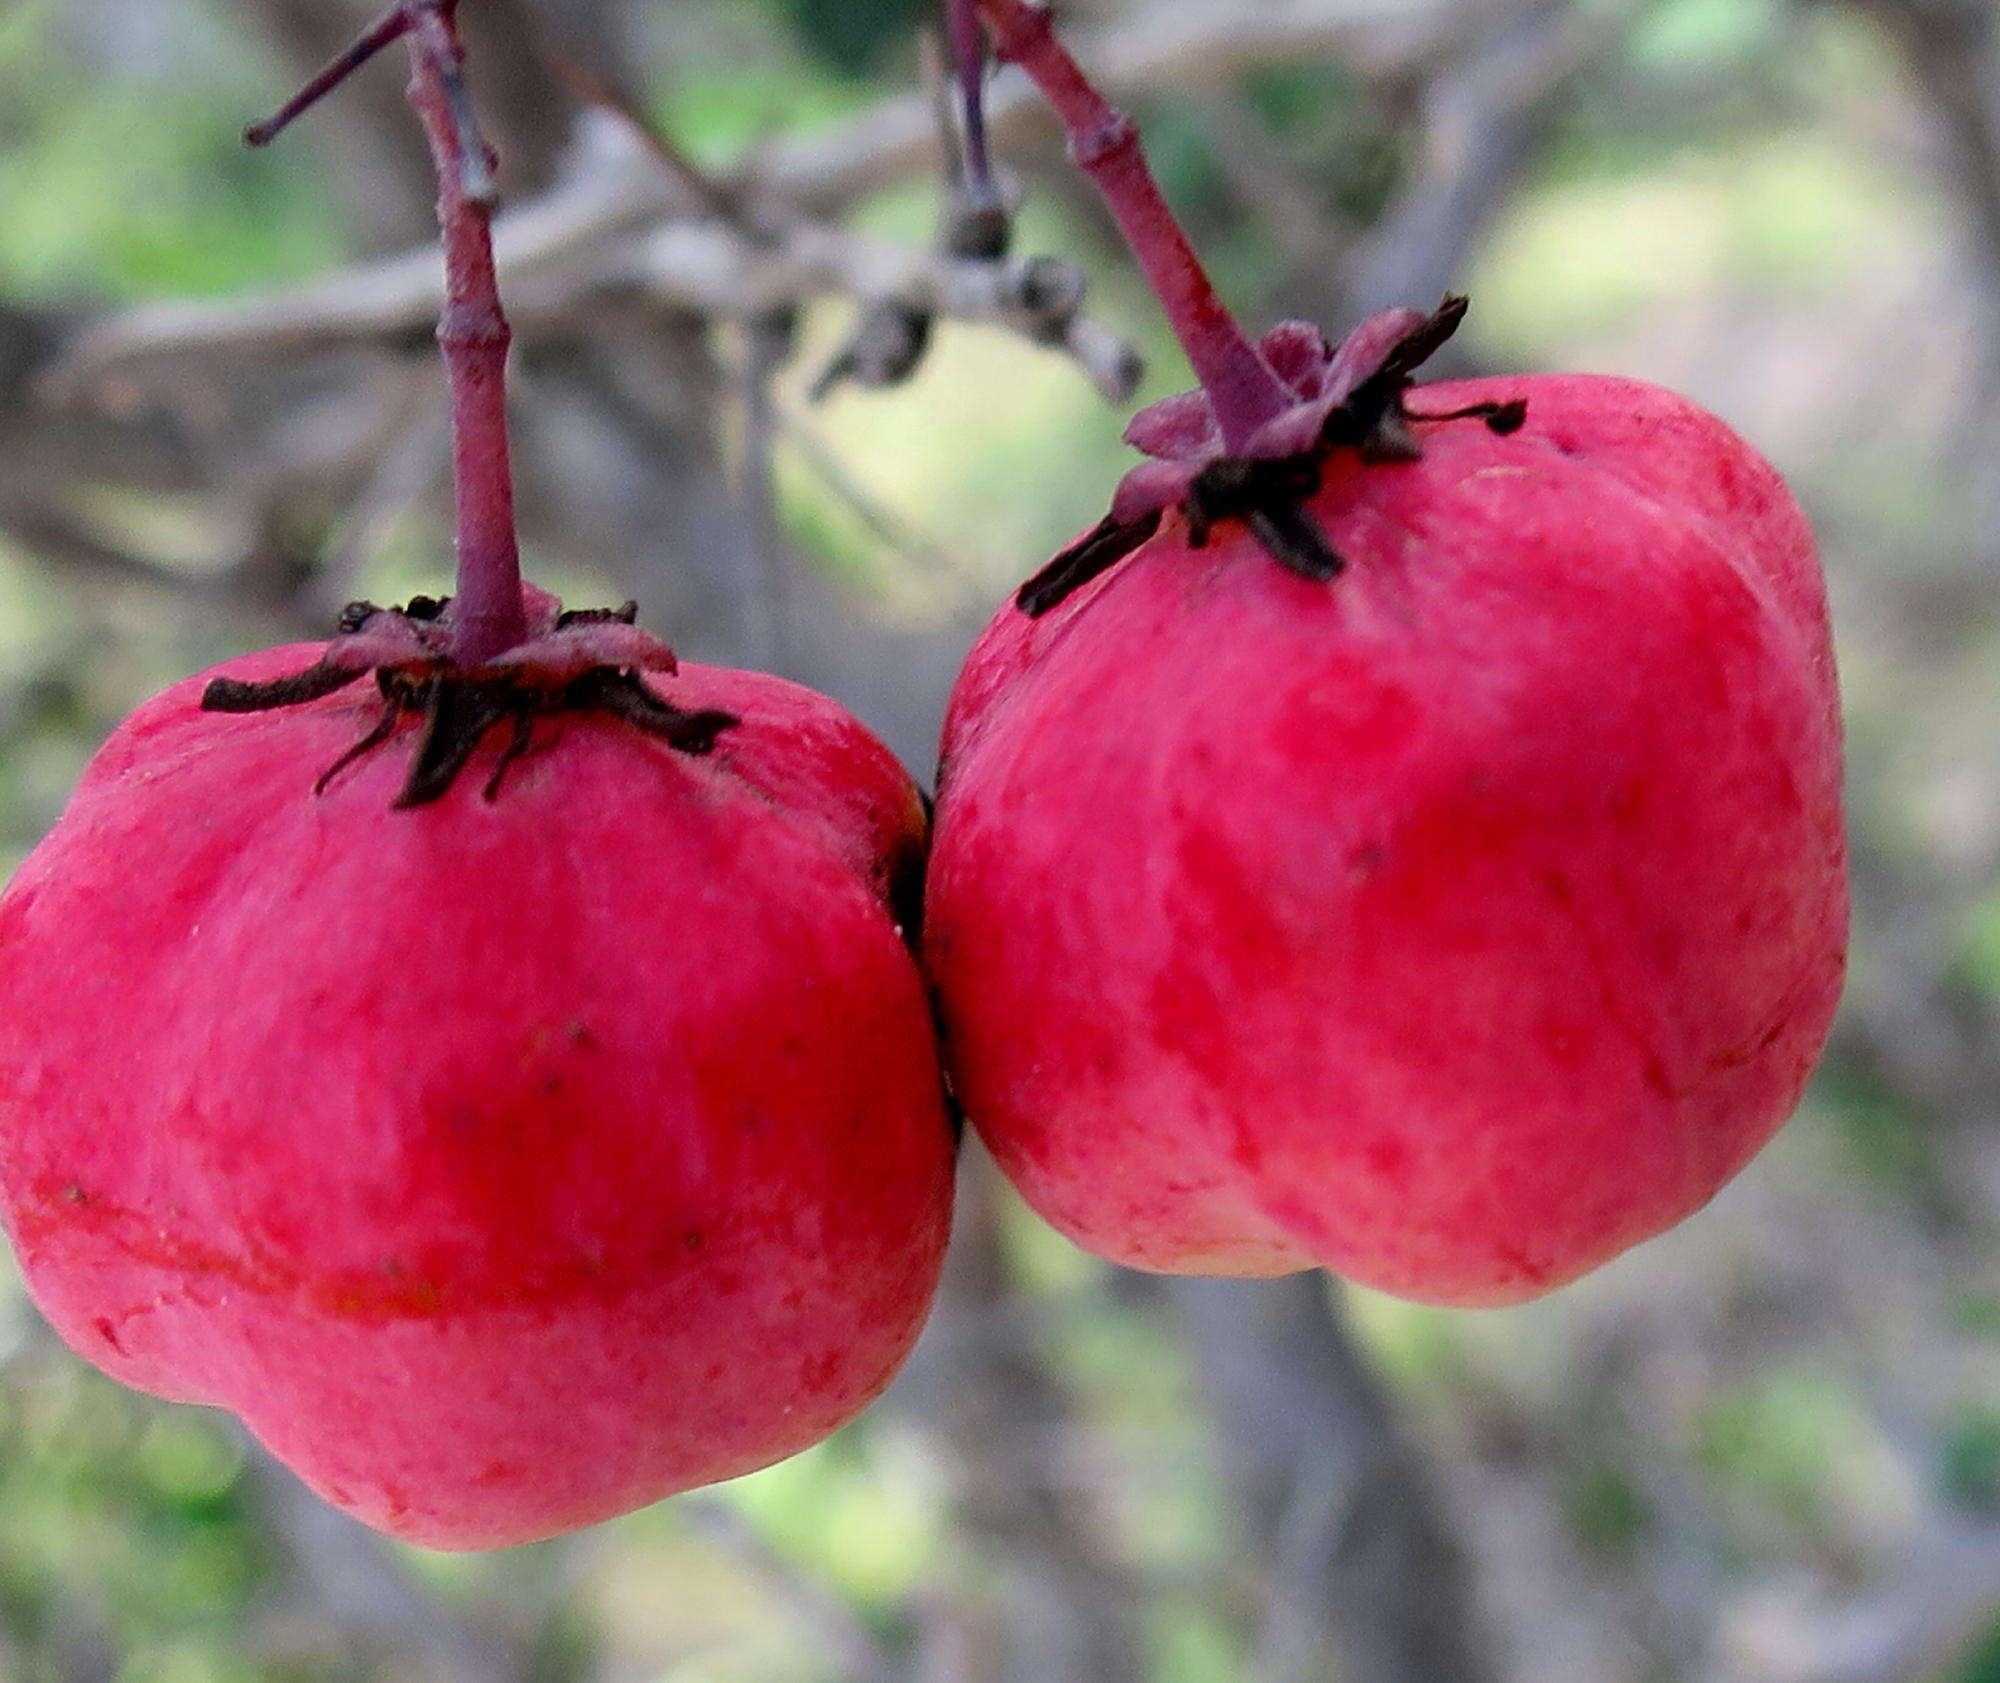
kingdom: Plantae
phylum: Tracheophyta
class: Magnoliopsida
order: Celastrales
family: Celastraceae
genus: Putterlickia
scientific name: Putterlickia pyracantha
